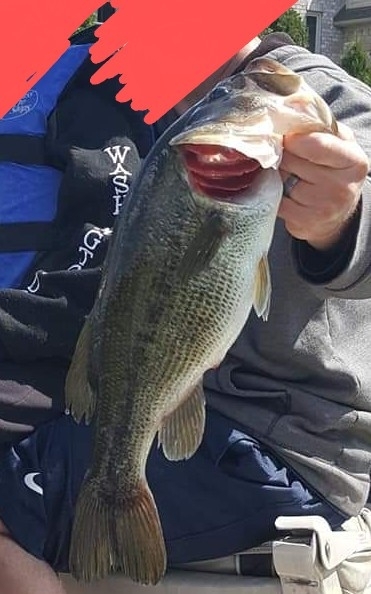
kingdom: Animalia
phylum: Chordata
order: Perciformes
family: Centrarchidae
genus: Micropterus
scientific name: Micropterus
